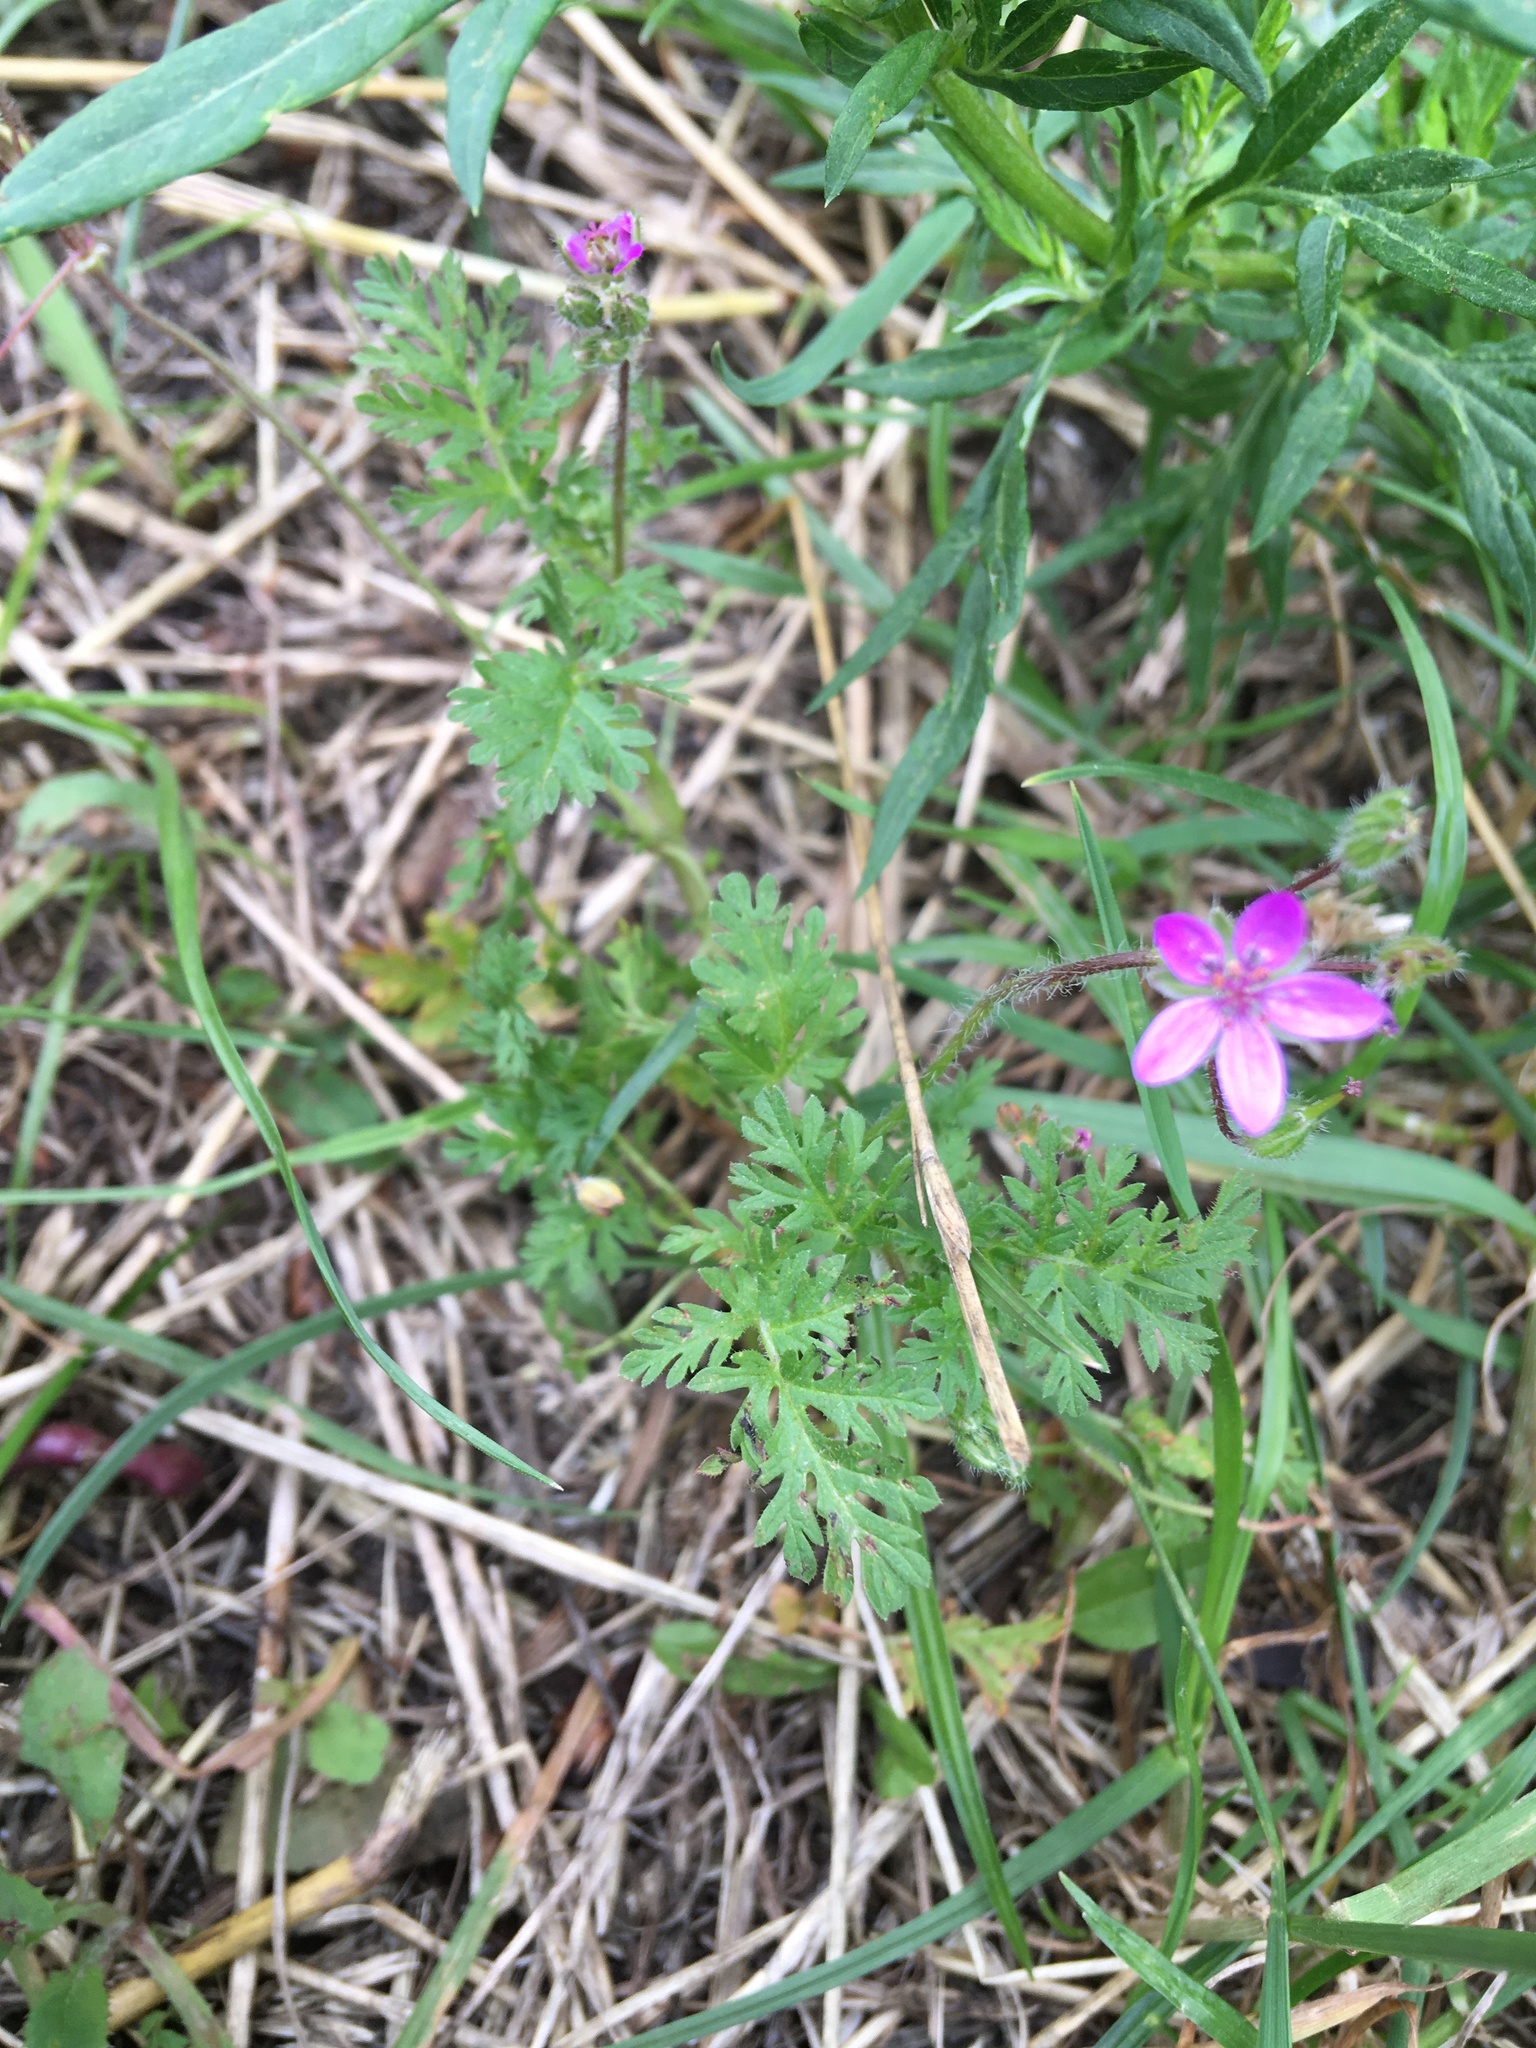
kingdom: Plantae
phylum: Tracheophyta
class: Magnoliopsida
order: Geraniales
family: Geraniaceae
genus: Erodium
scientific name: Erodium cicutarium
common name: Common stork's-bill
